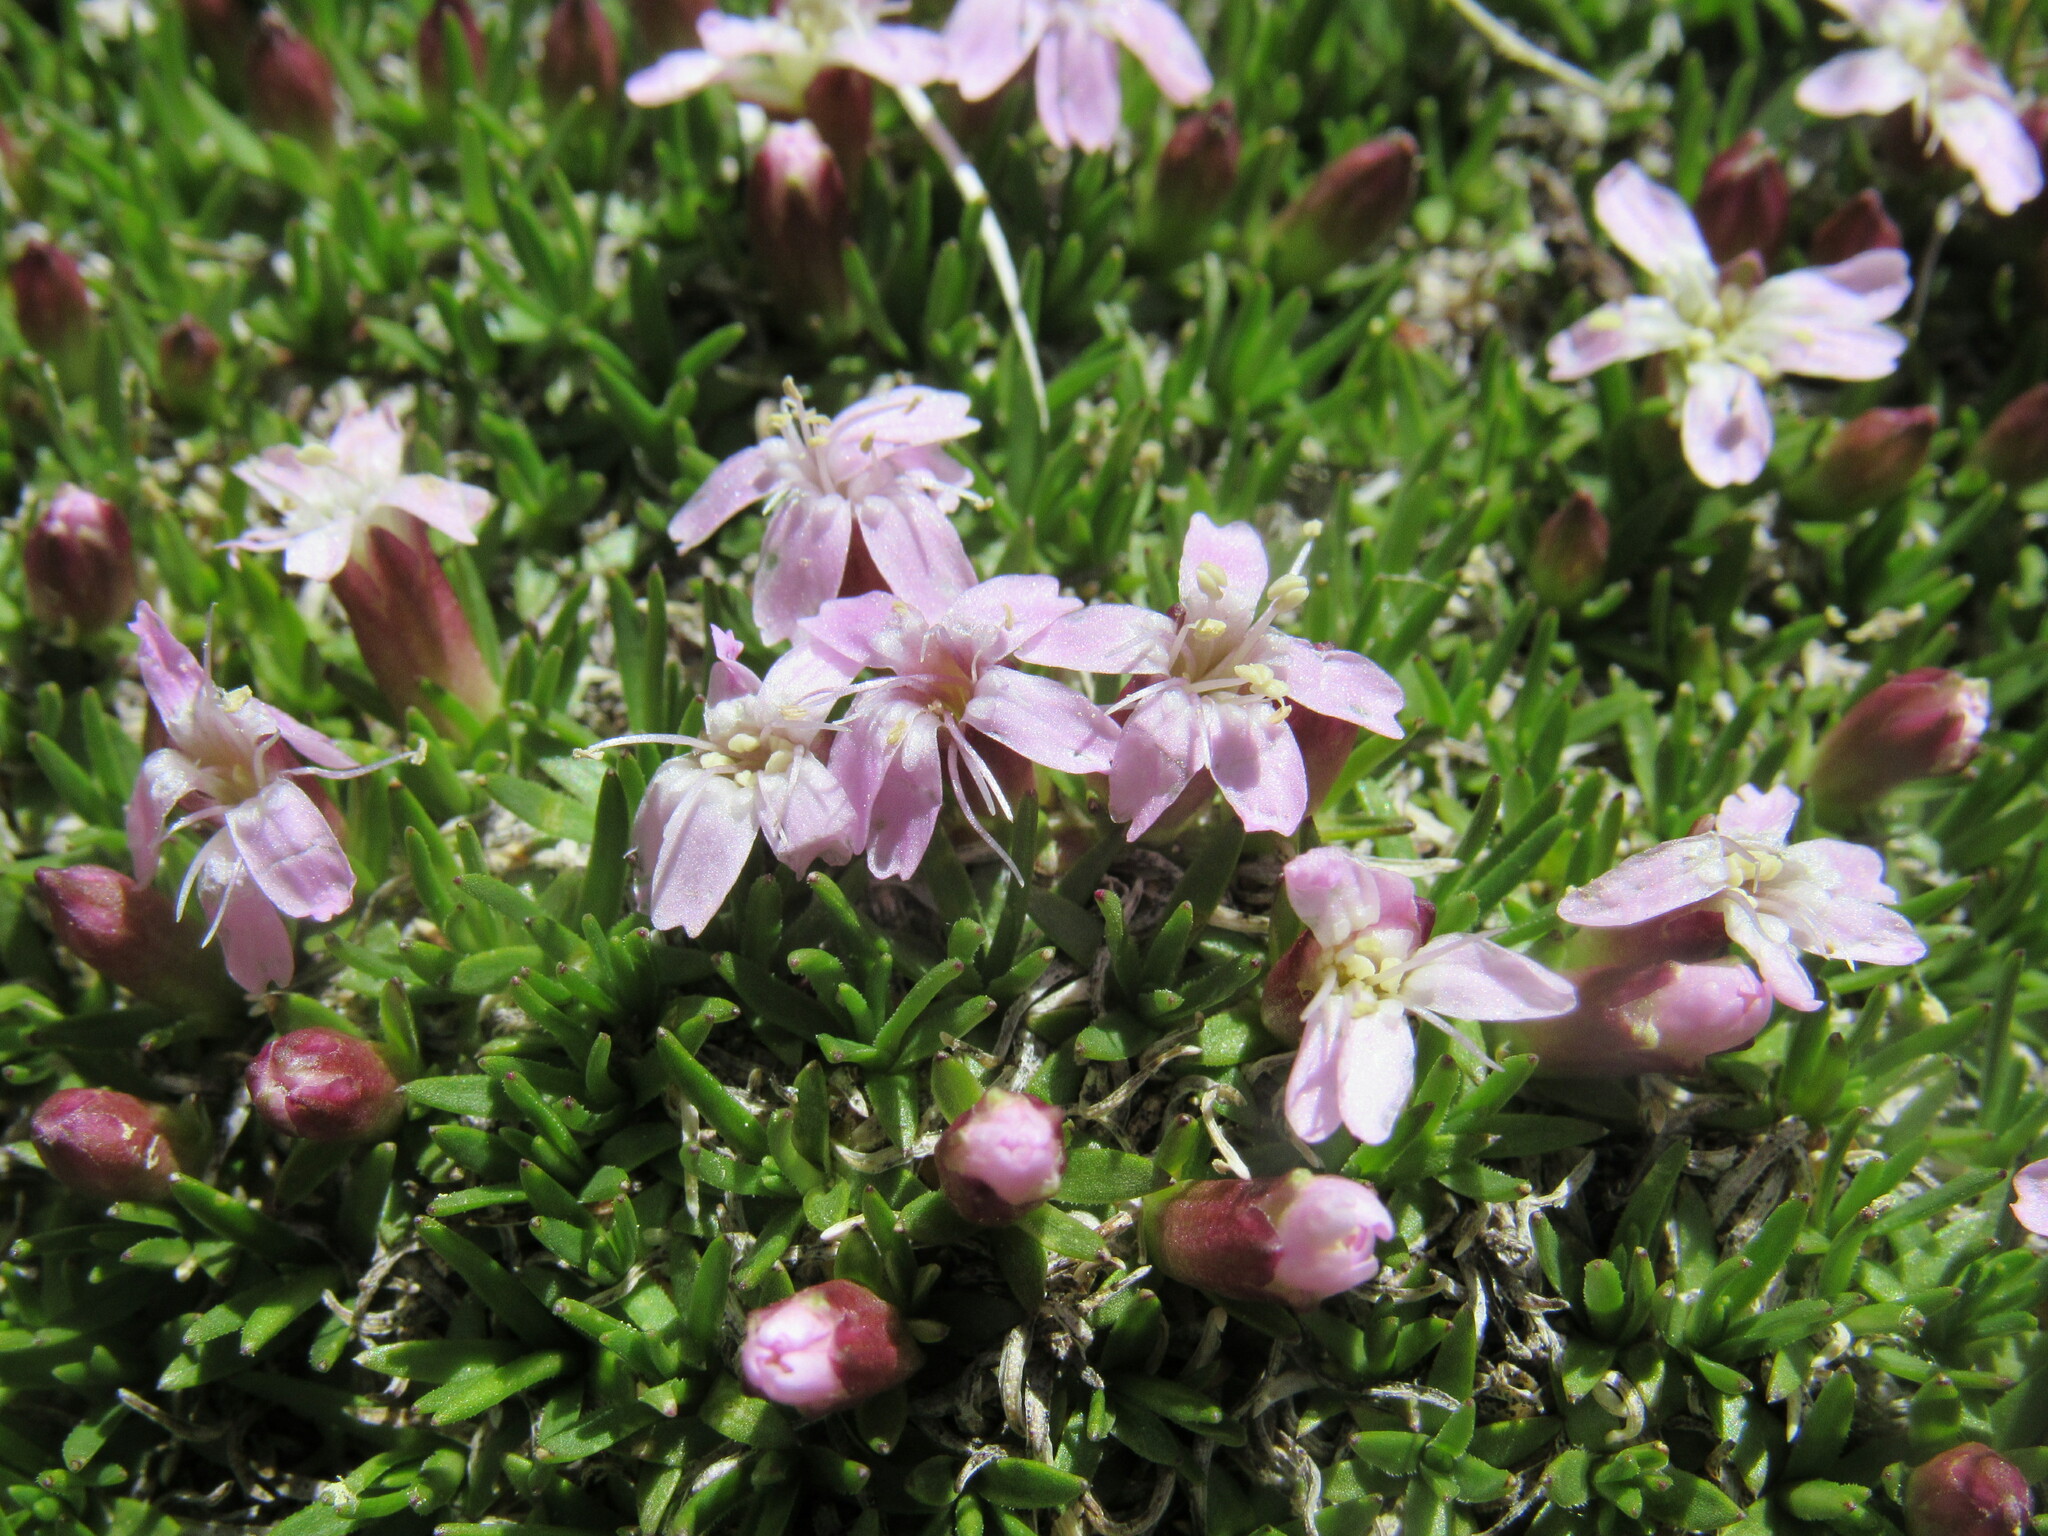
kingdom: Plantae
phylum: Tracheophyta
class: Magnoliopsida
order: Caryophyllales
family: Caryophyllaceae
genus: Silene
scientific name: Silene acaulis
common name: Moss campion
